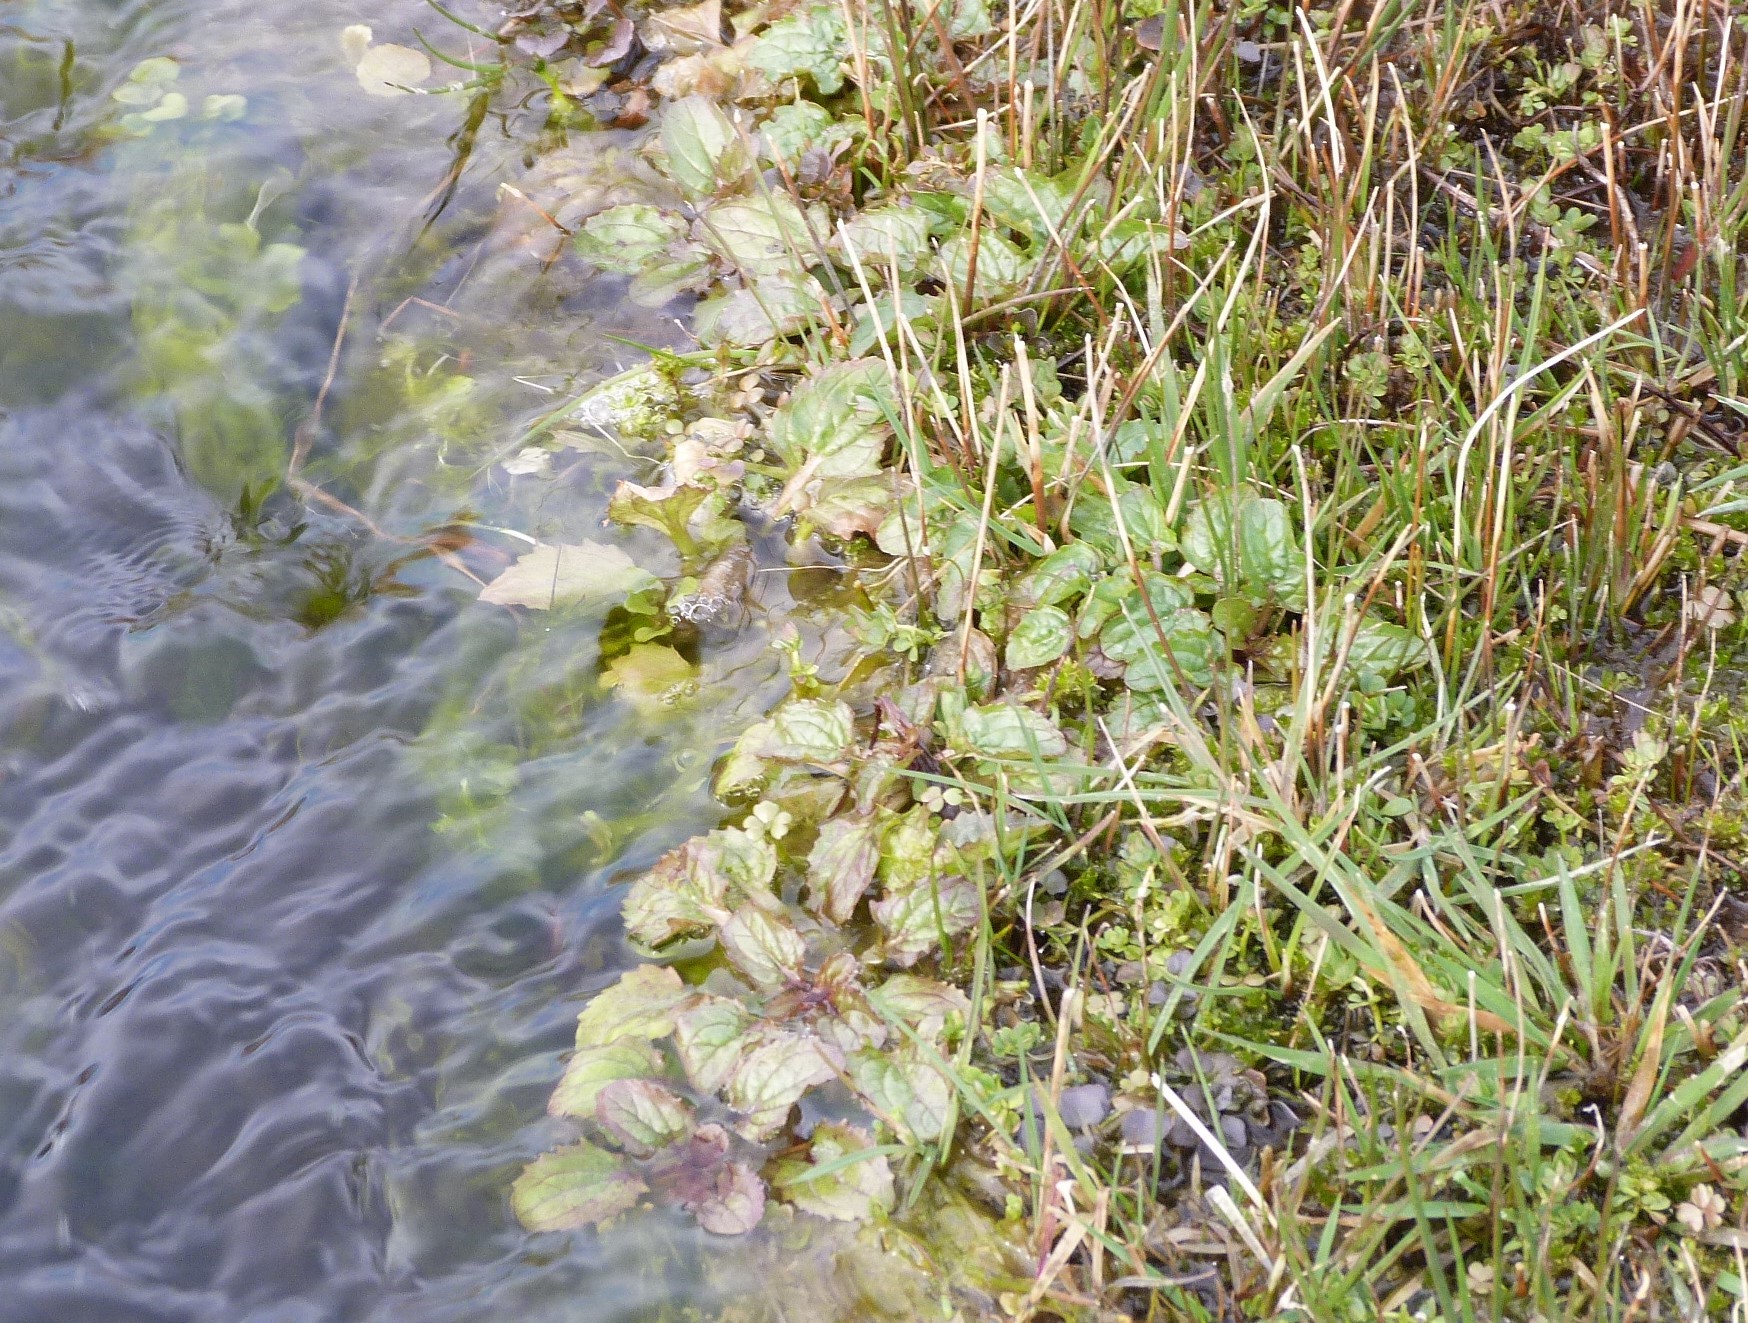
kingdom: Plantae
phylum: Tracheophyta
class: Magnoliopsida
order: Lamiales
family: Phrymaceae
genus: Erythranthe
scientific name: Erythranthe guttata
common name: Monkeyflower
